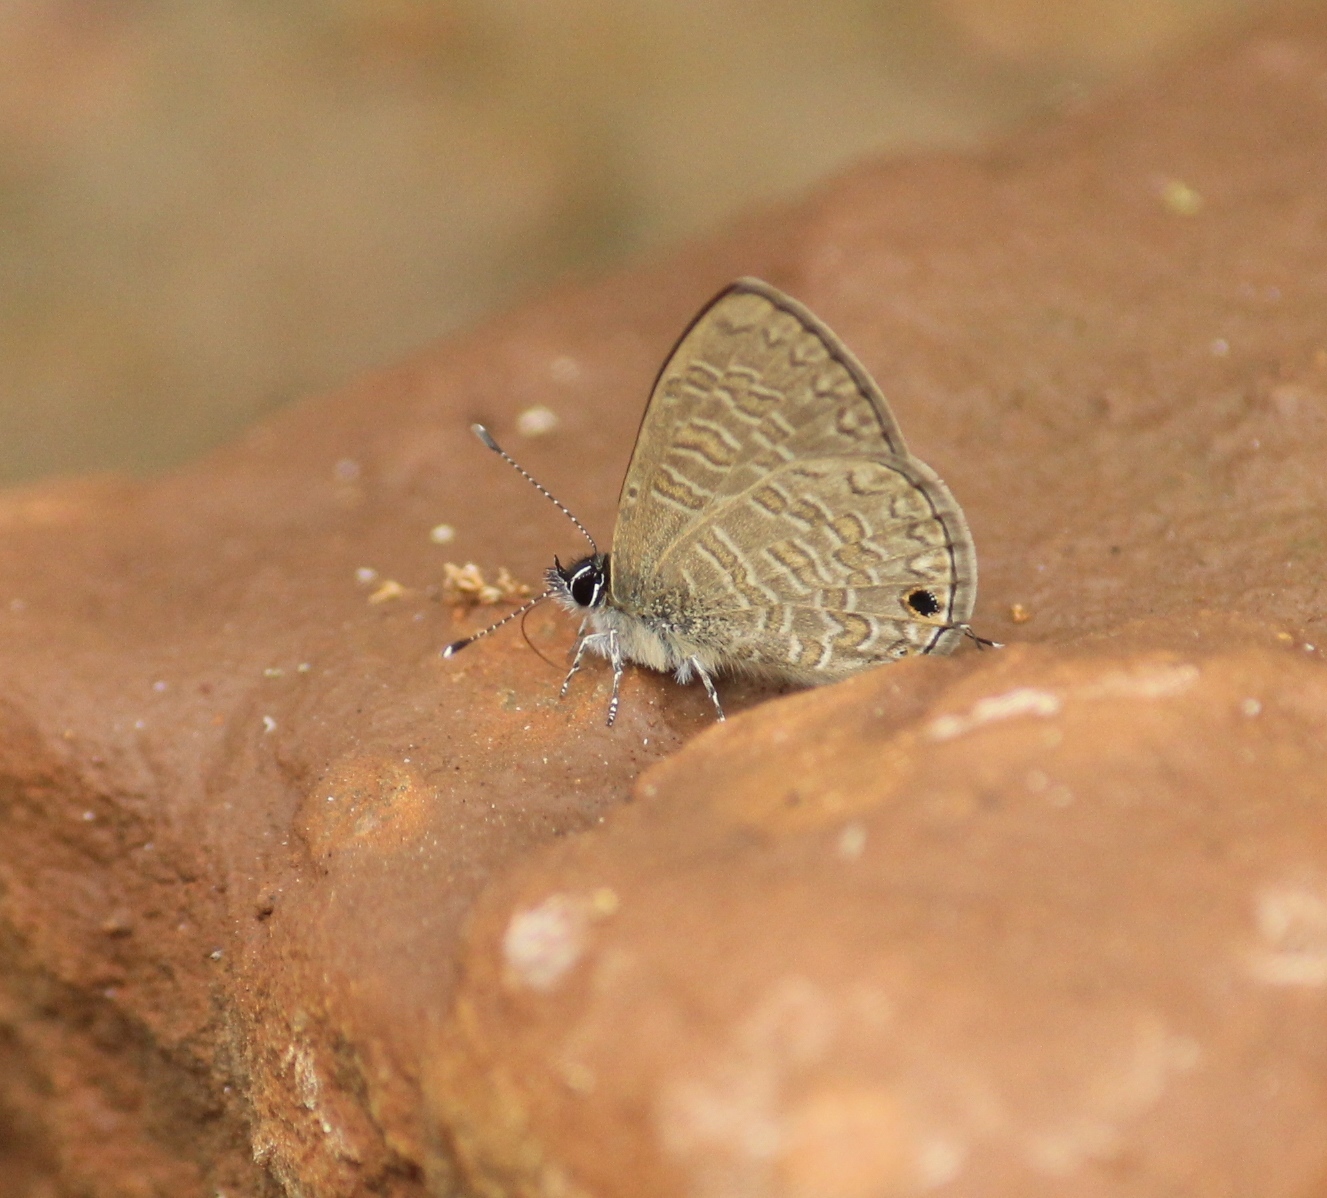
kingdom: Animalia
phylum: Arthropoda
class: Insecta
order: Lepidoptera
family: Lycaenidae
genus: Prosotas
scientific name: Prosotas nora
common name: Common line blue
